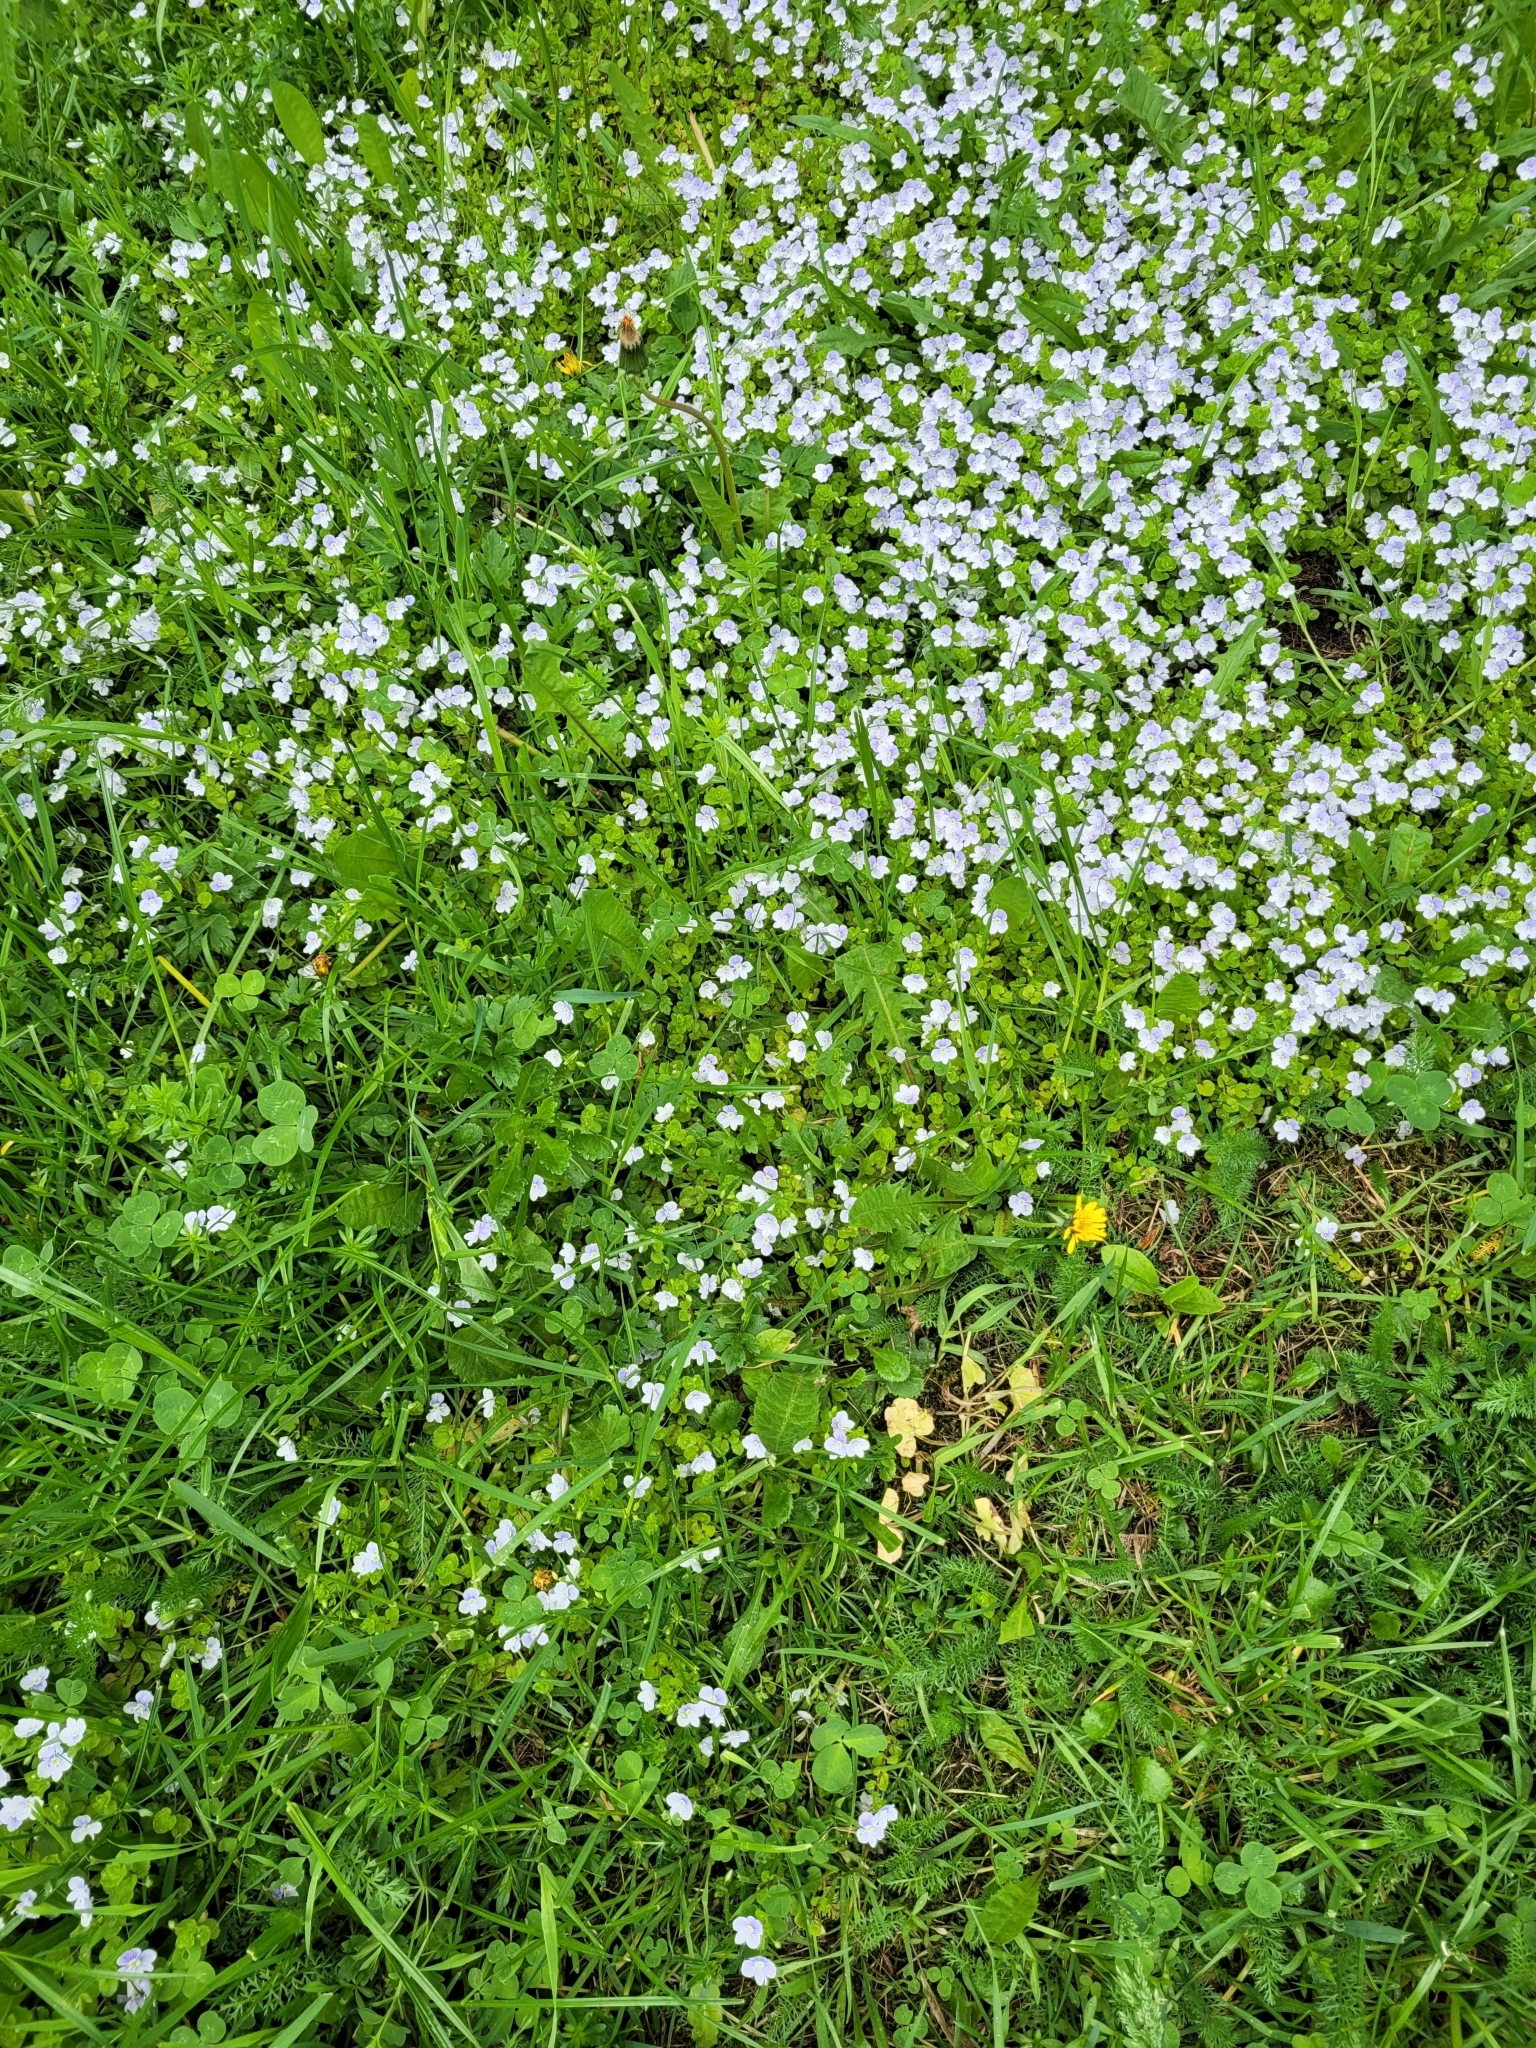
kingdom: Plantae
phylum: Tracheophyta
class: Magnoliopsida
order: Lamiales
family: Plantaginaceae
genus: Veronica
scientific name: Veronica filiformis
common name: Slender speedwell
